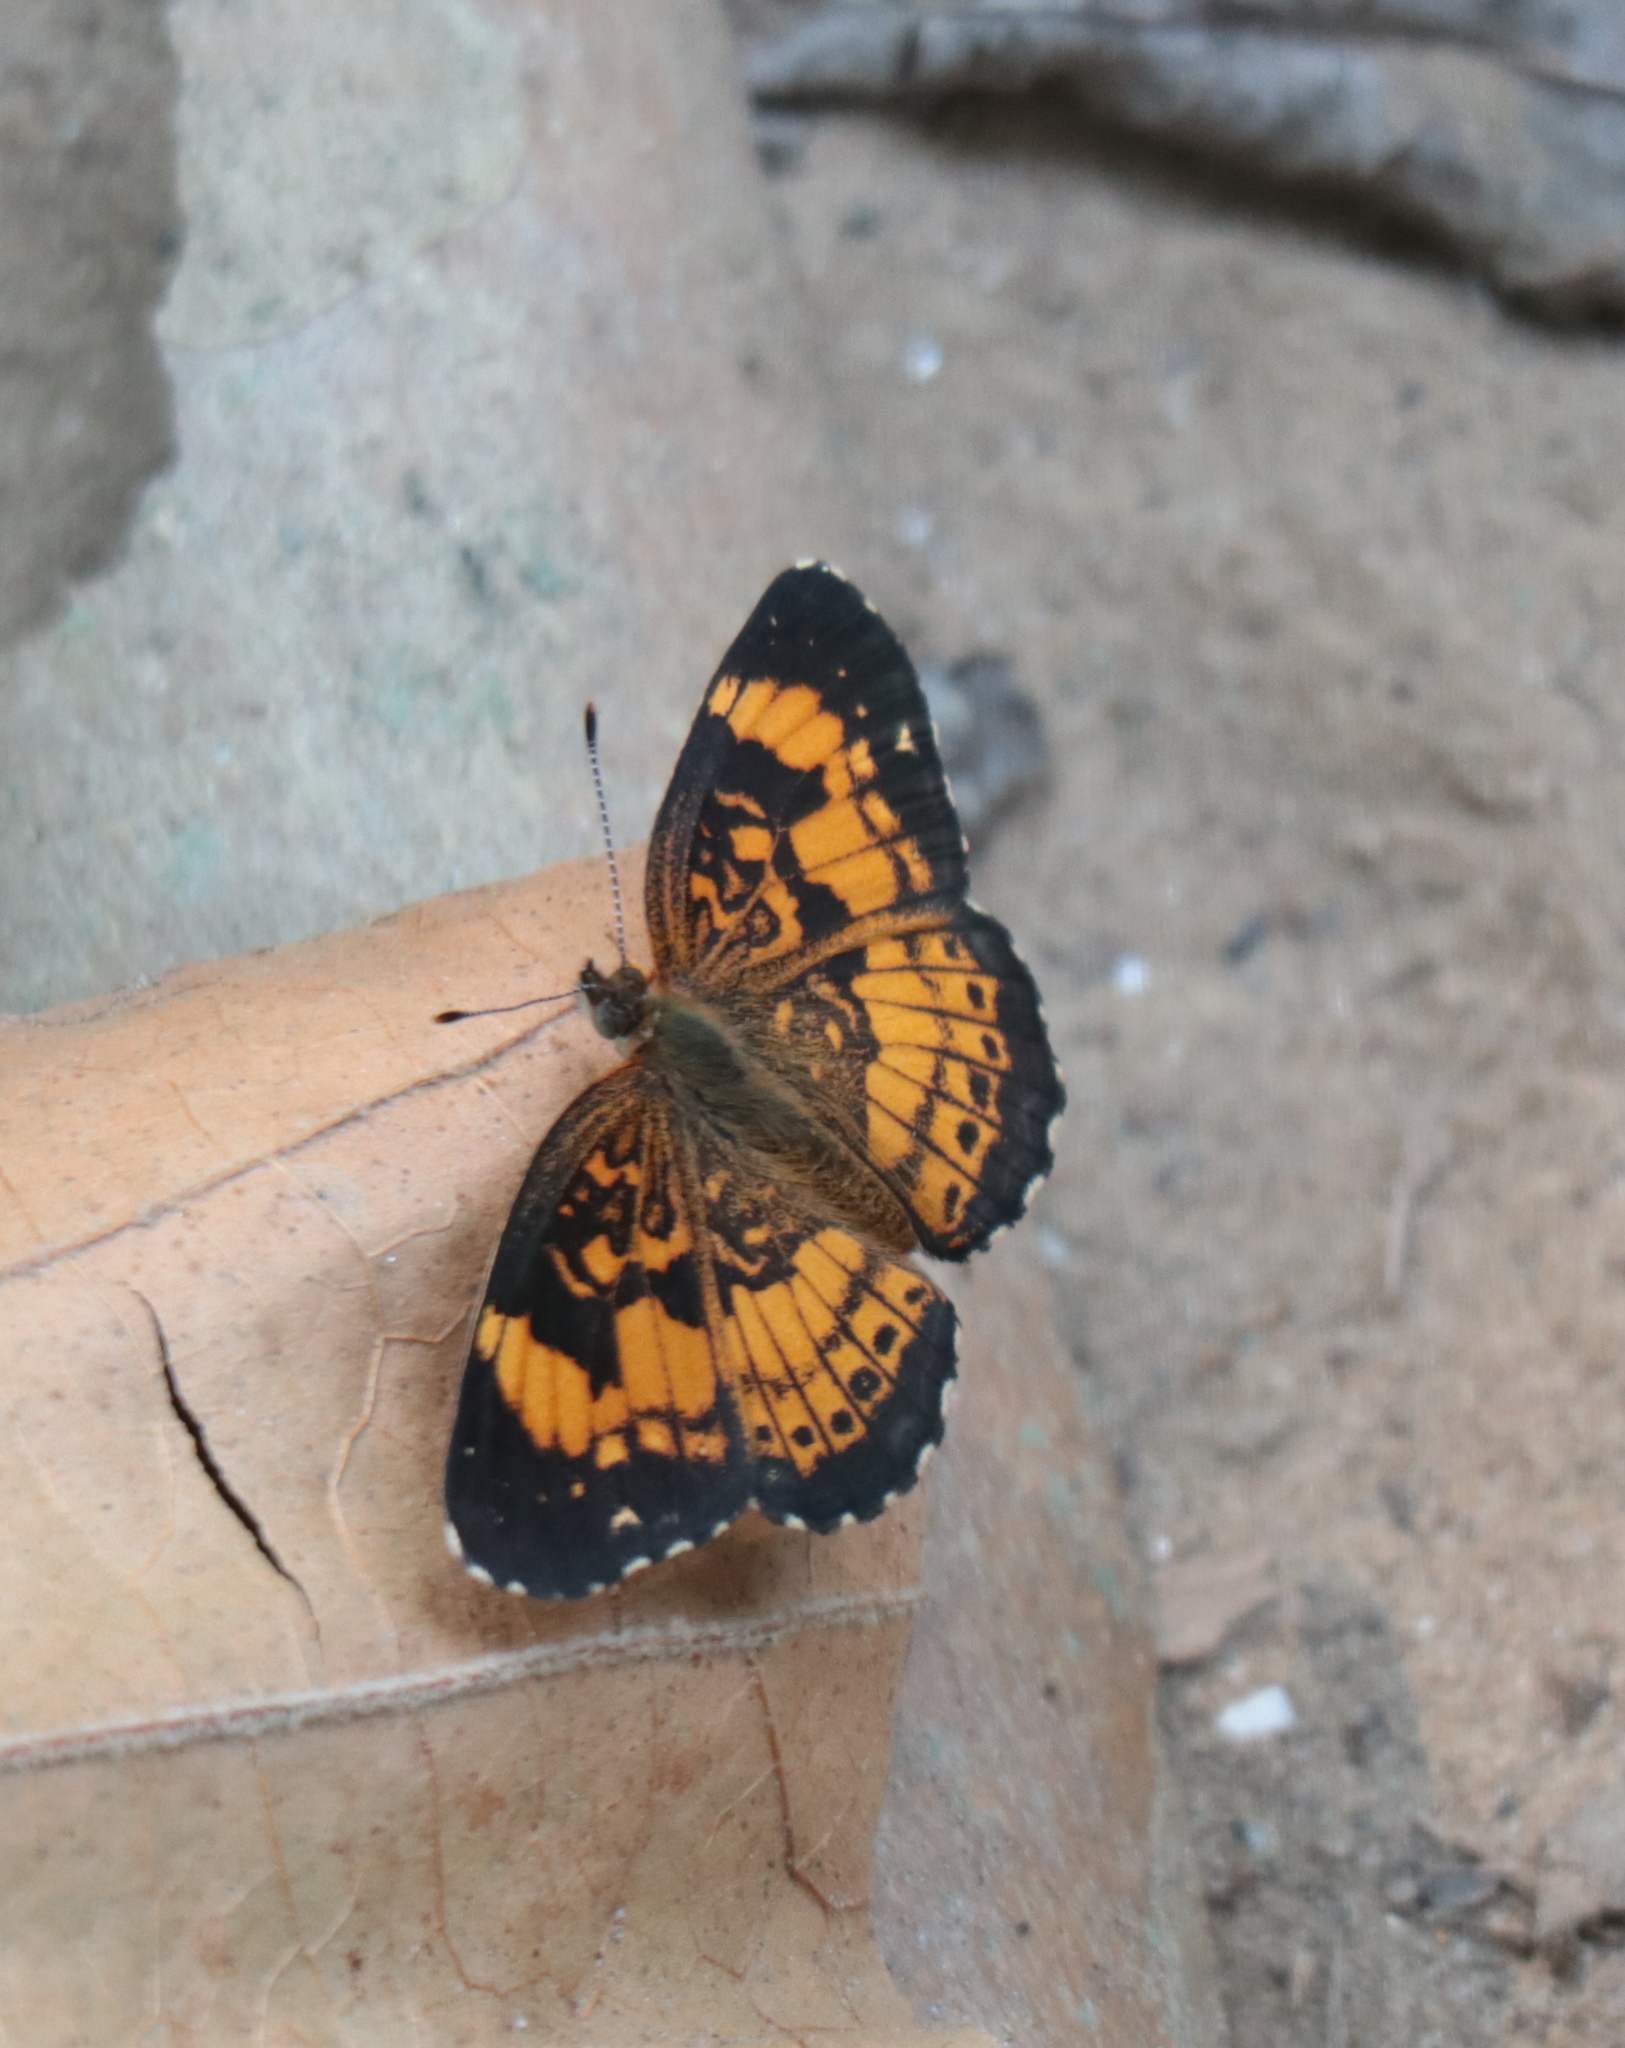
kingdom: Animalia
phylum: Arthropoda
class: Insecta
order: Lepidoptera
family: Nymphalidae
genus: Chlosyne
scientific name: Chlosyne nycteis
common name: Silvery checkerspot
